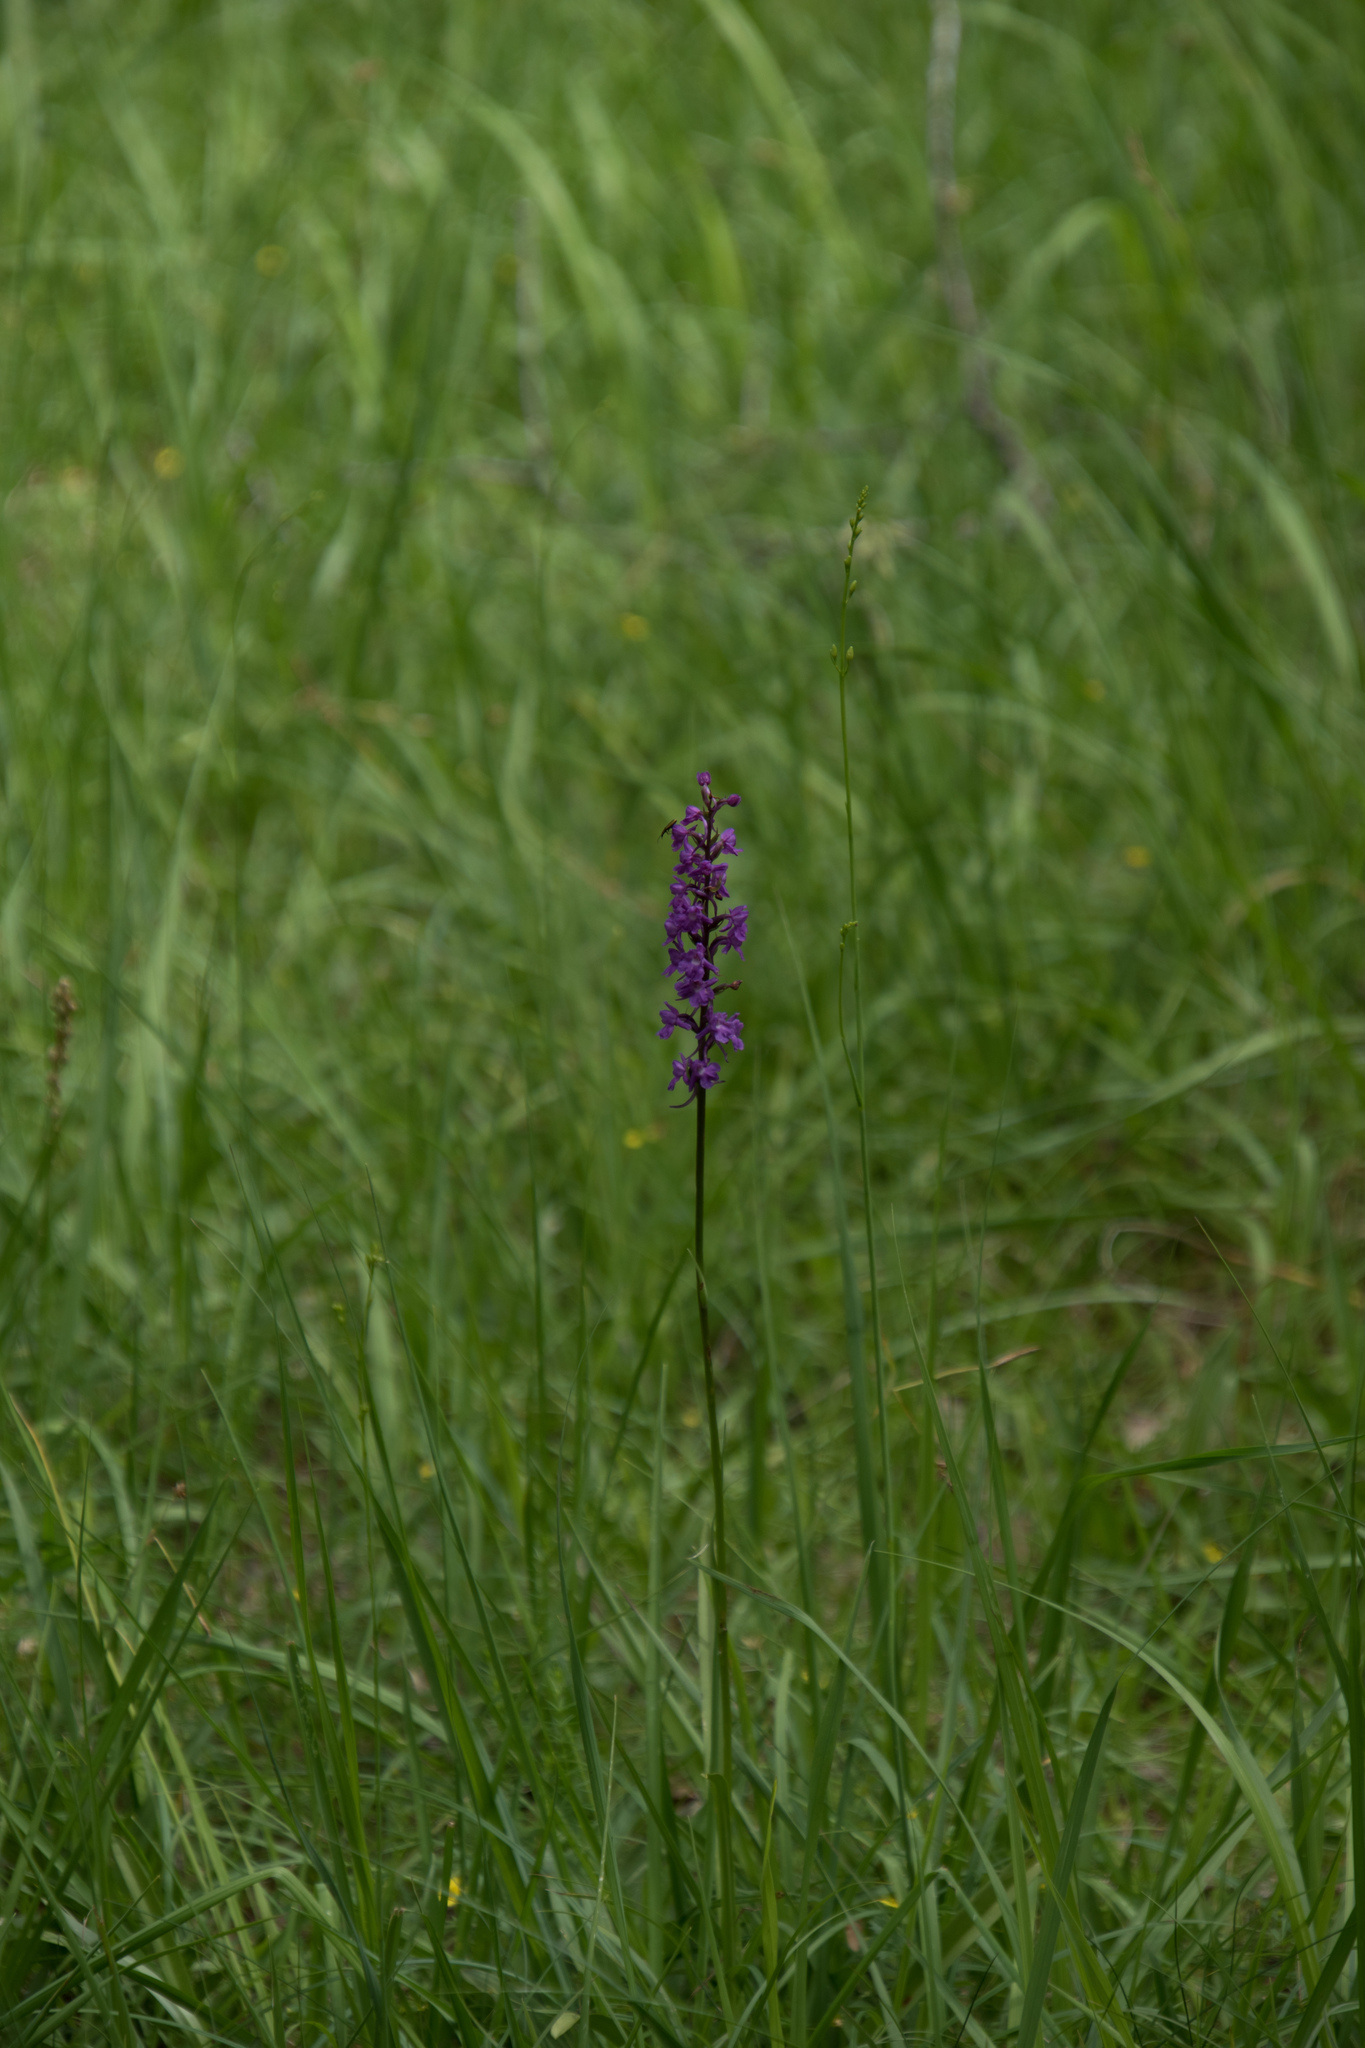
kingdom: Plantae
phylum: Tracheophyta
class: Liliopsida
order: Asparagales
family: Orchidaceae
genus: Gymnadenia
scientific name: Gymnadenia conopsea
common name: Fragrant orchid
